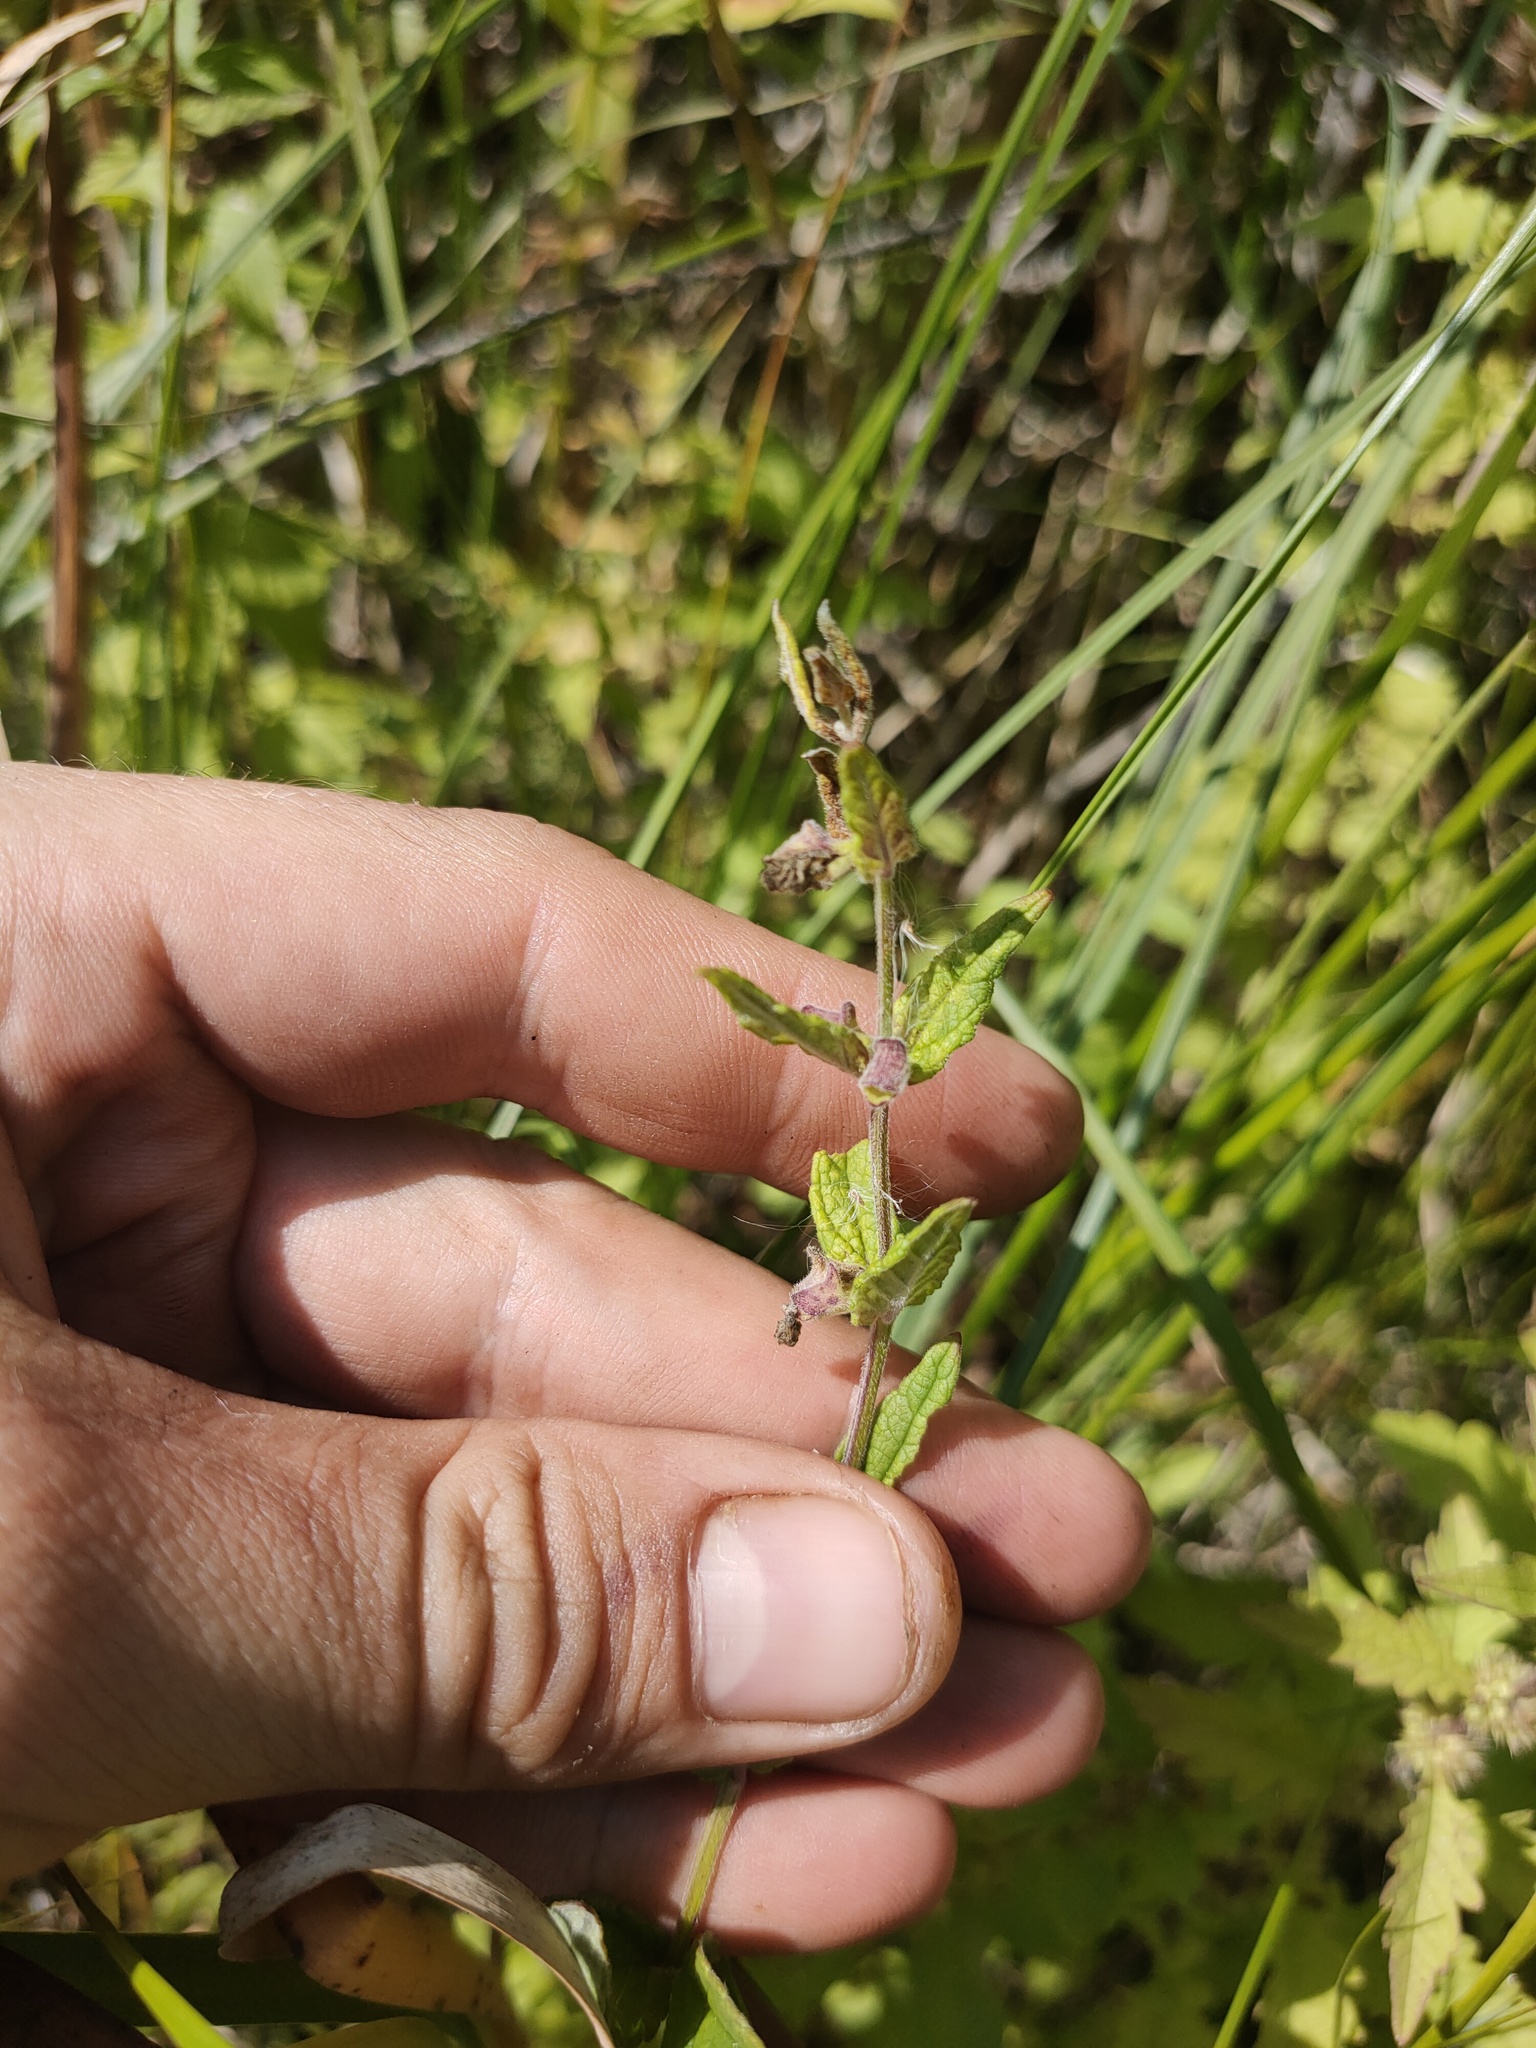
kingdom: Plantae
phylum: Tracheophyta
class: Magnoliopsida
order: Lamiales
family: Lamiaceae
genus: Scutellaria
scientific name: Scutellaria galericulata
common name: Skullcap
